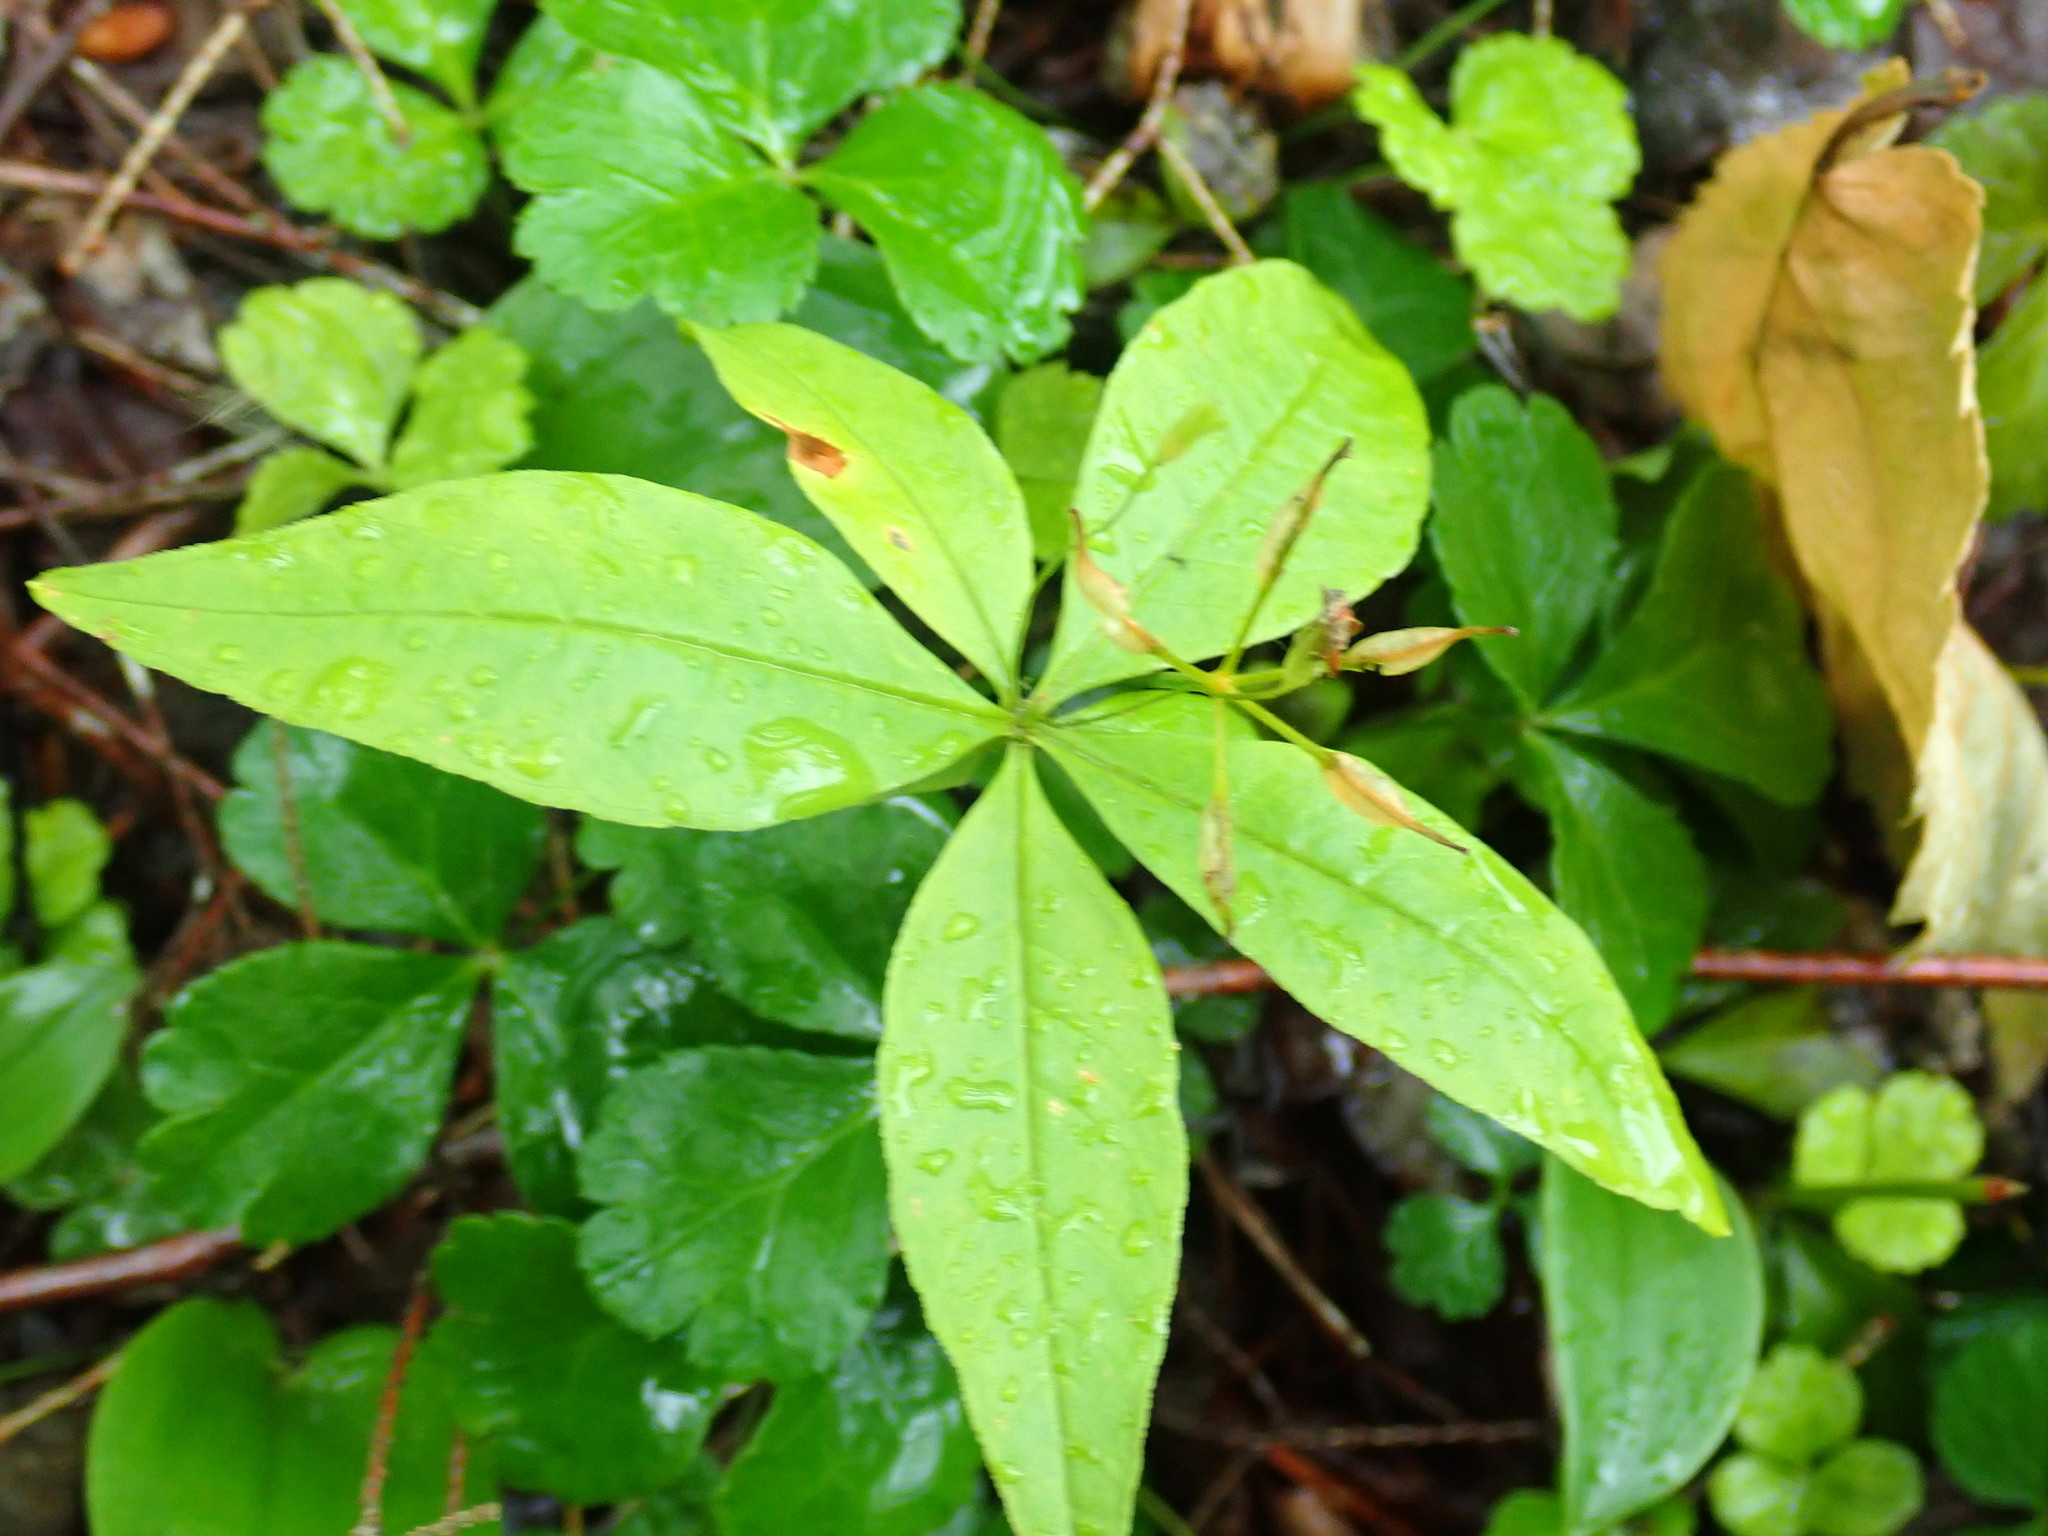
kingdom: Plantae
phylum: Tracheophyta
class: Magnoliopsida
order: Ericales
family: Primulaceae
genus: Lysimachia
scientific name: Lysimachia borealis
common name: American starflower
